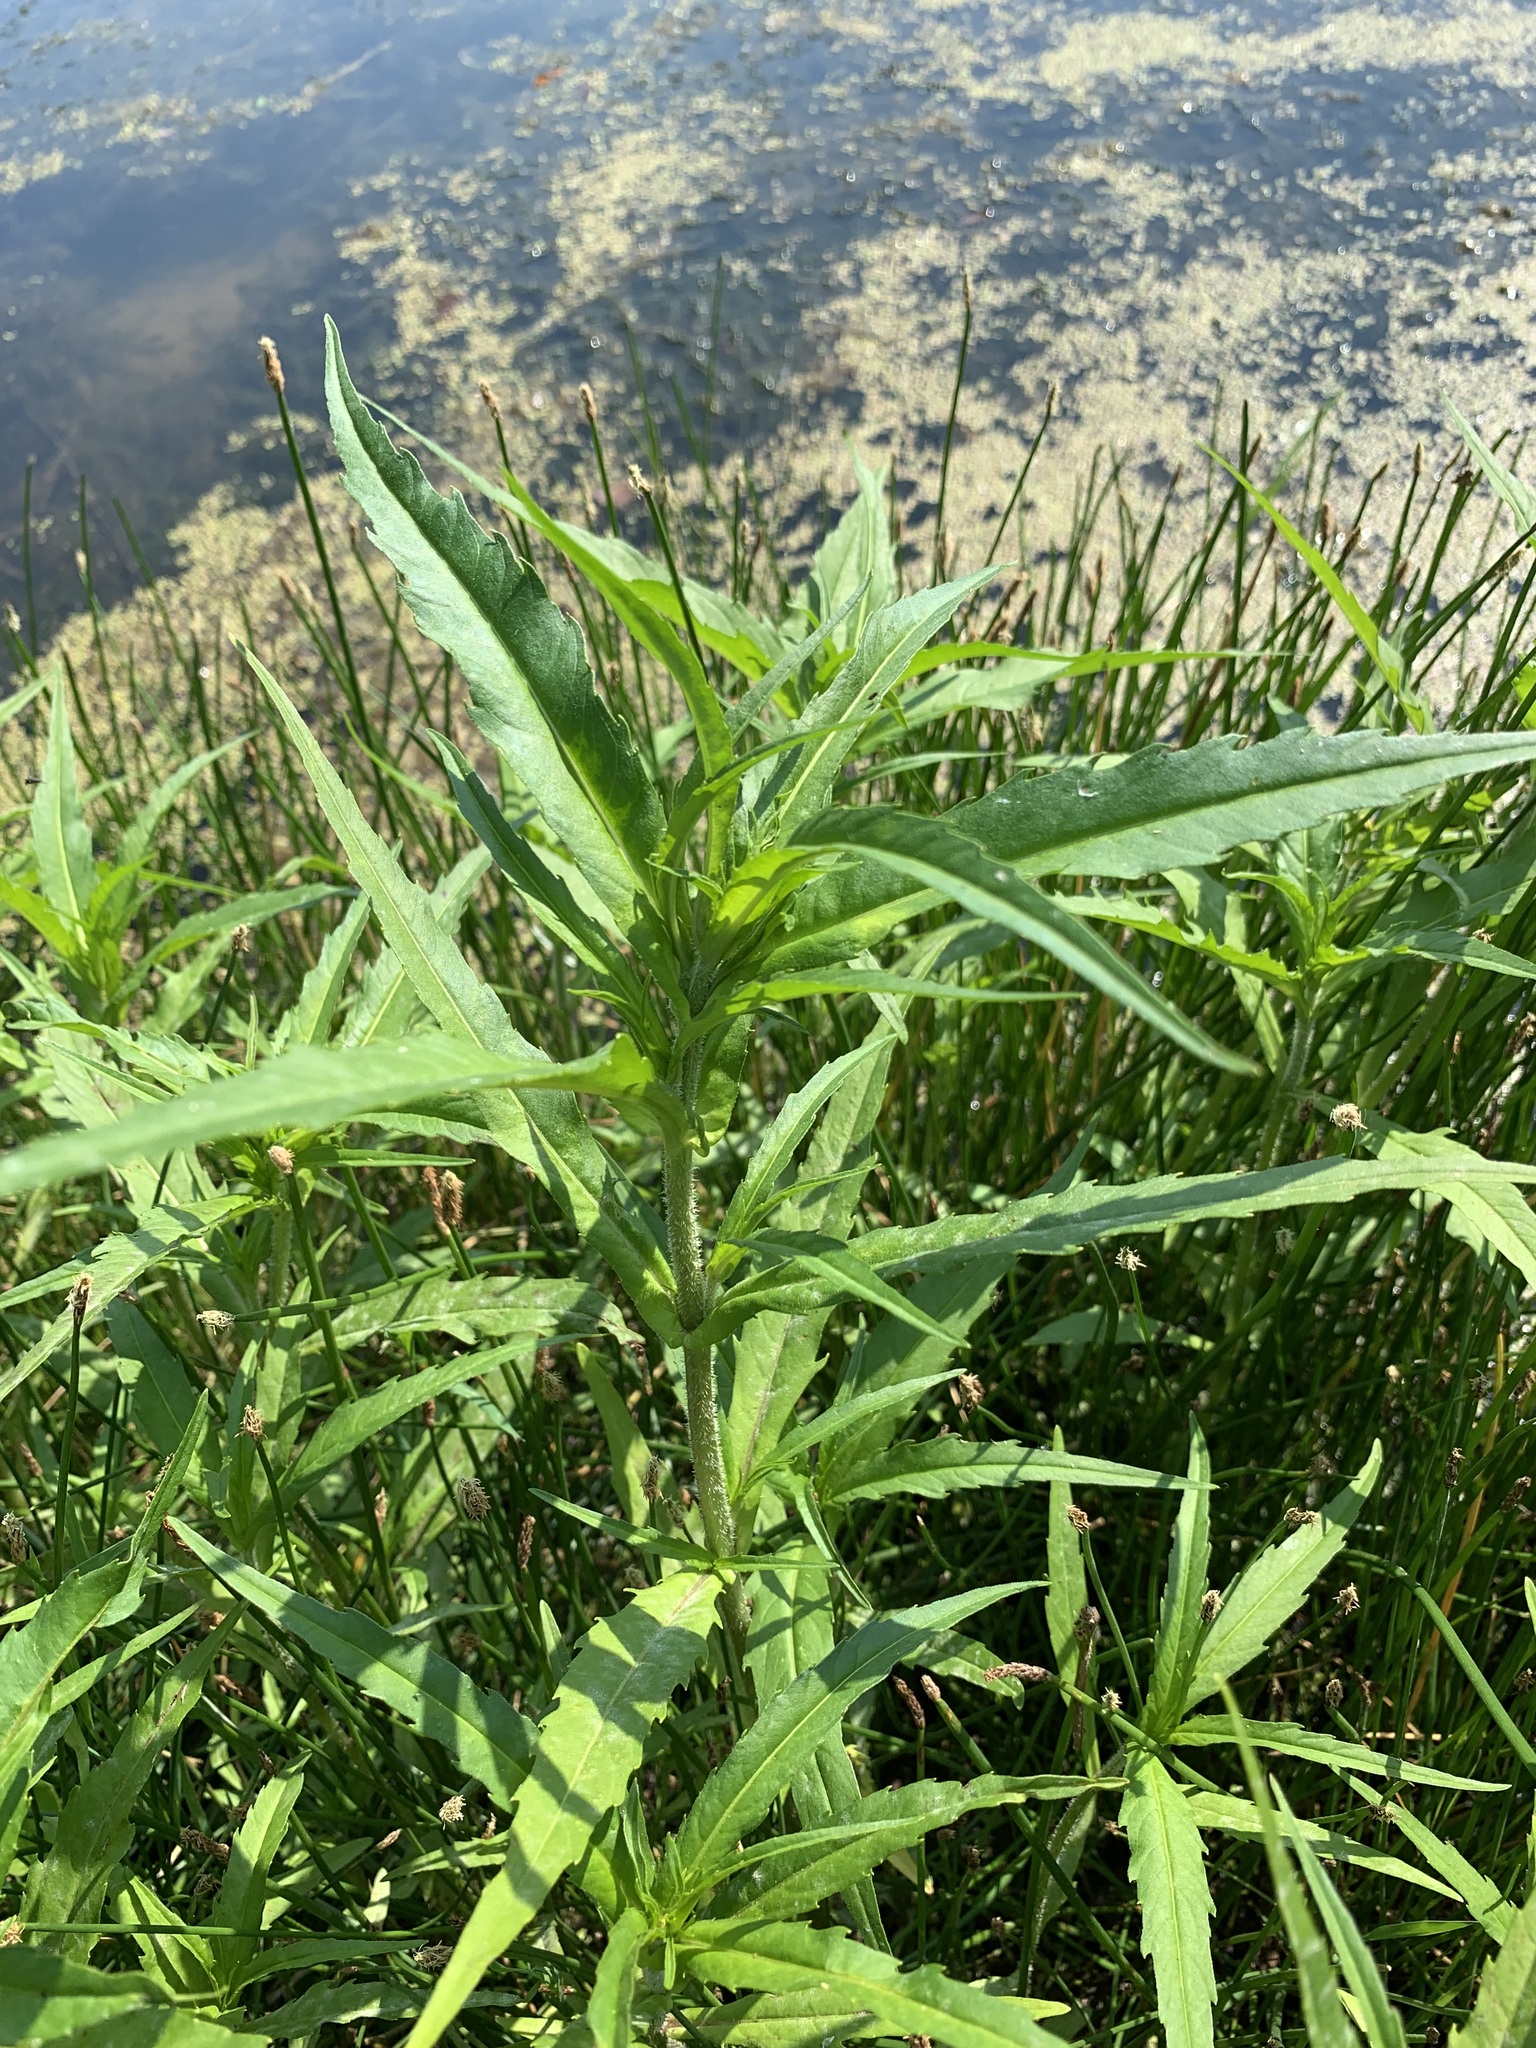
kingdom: Plantae
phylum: Tracheophyta
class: Magnoliopsida
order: Asterales
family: Asteraceae
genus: Bidens
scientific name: Bidens cernua
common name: Nodding bur-marigold
